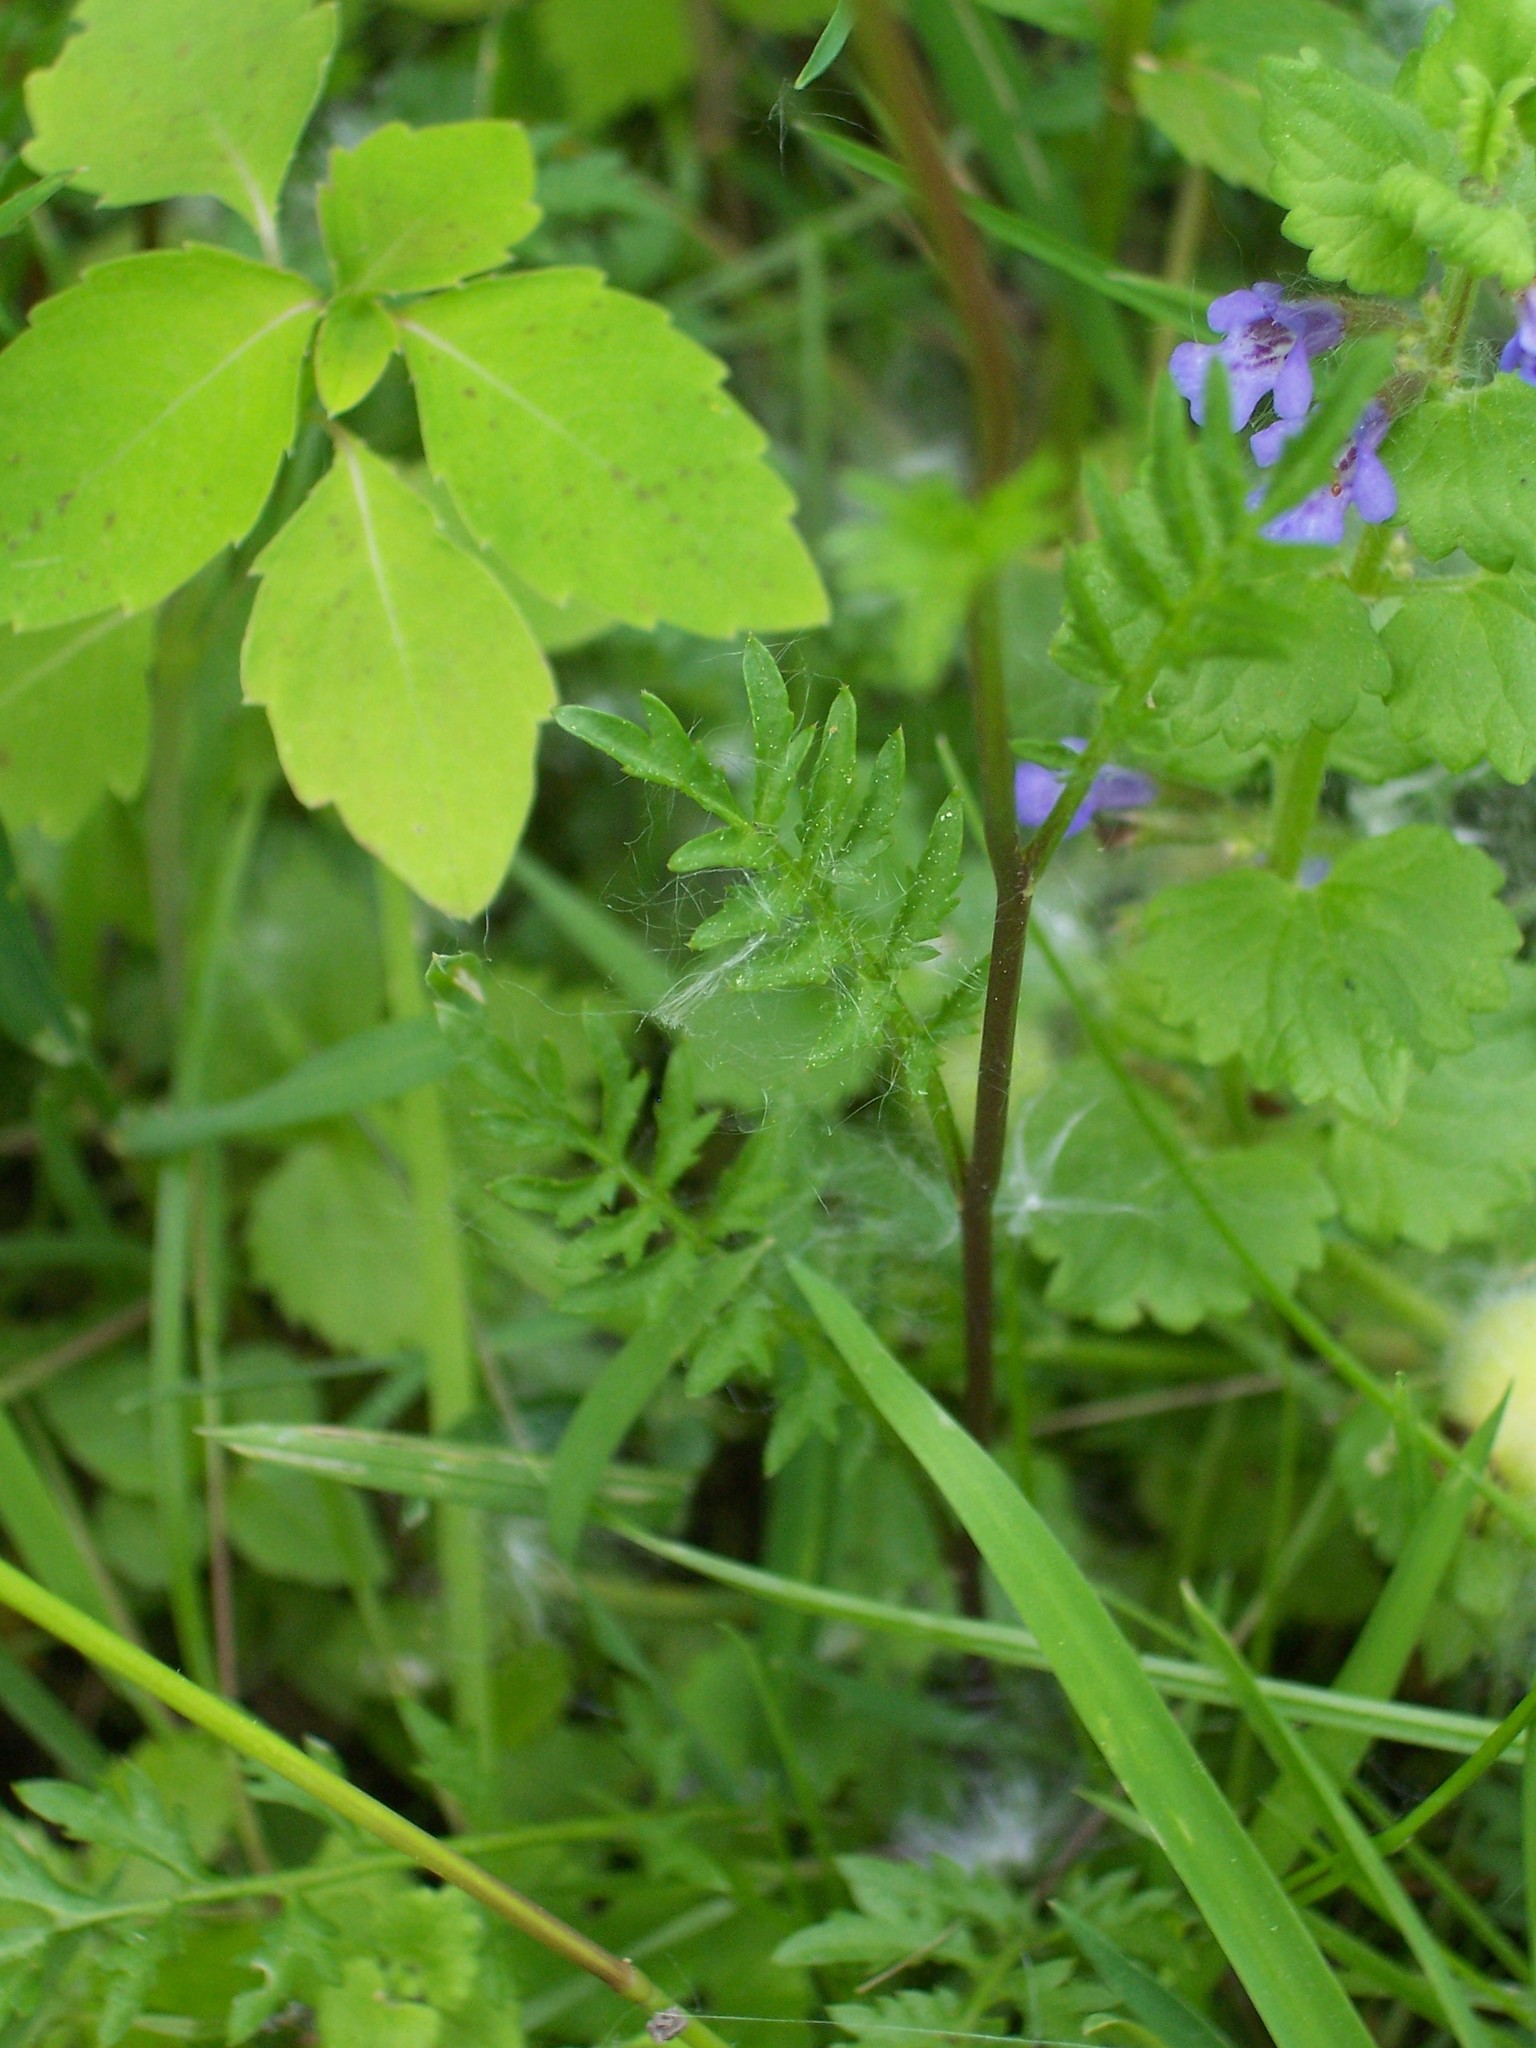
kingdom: Plantae
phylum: Tracheophyta
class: Magnoliopsida
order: Brassicales
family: Brassicaceae
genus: Rorippa
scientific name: Rorippa sylvestris
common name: Creeping yellowcress
